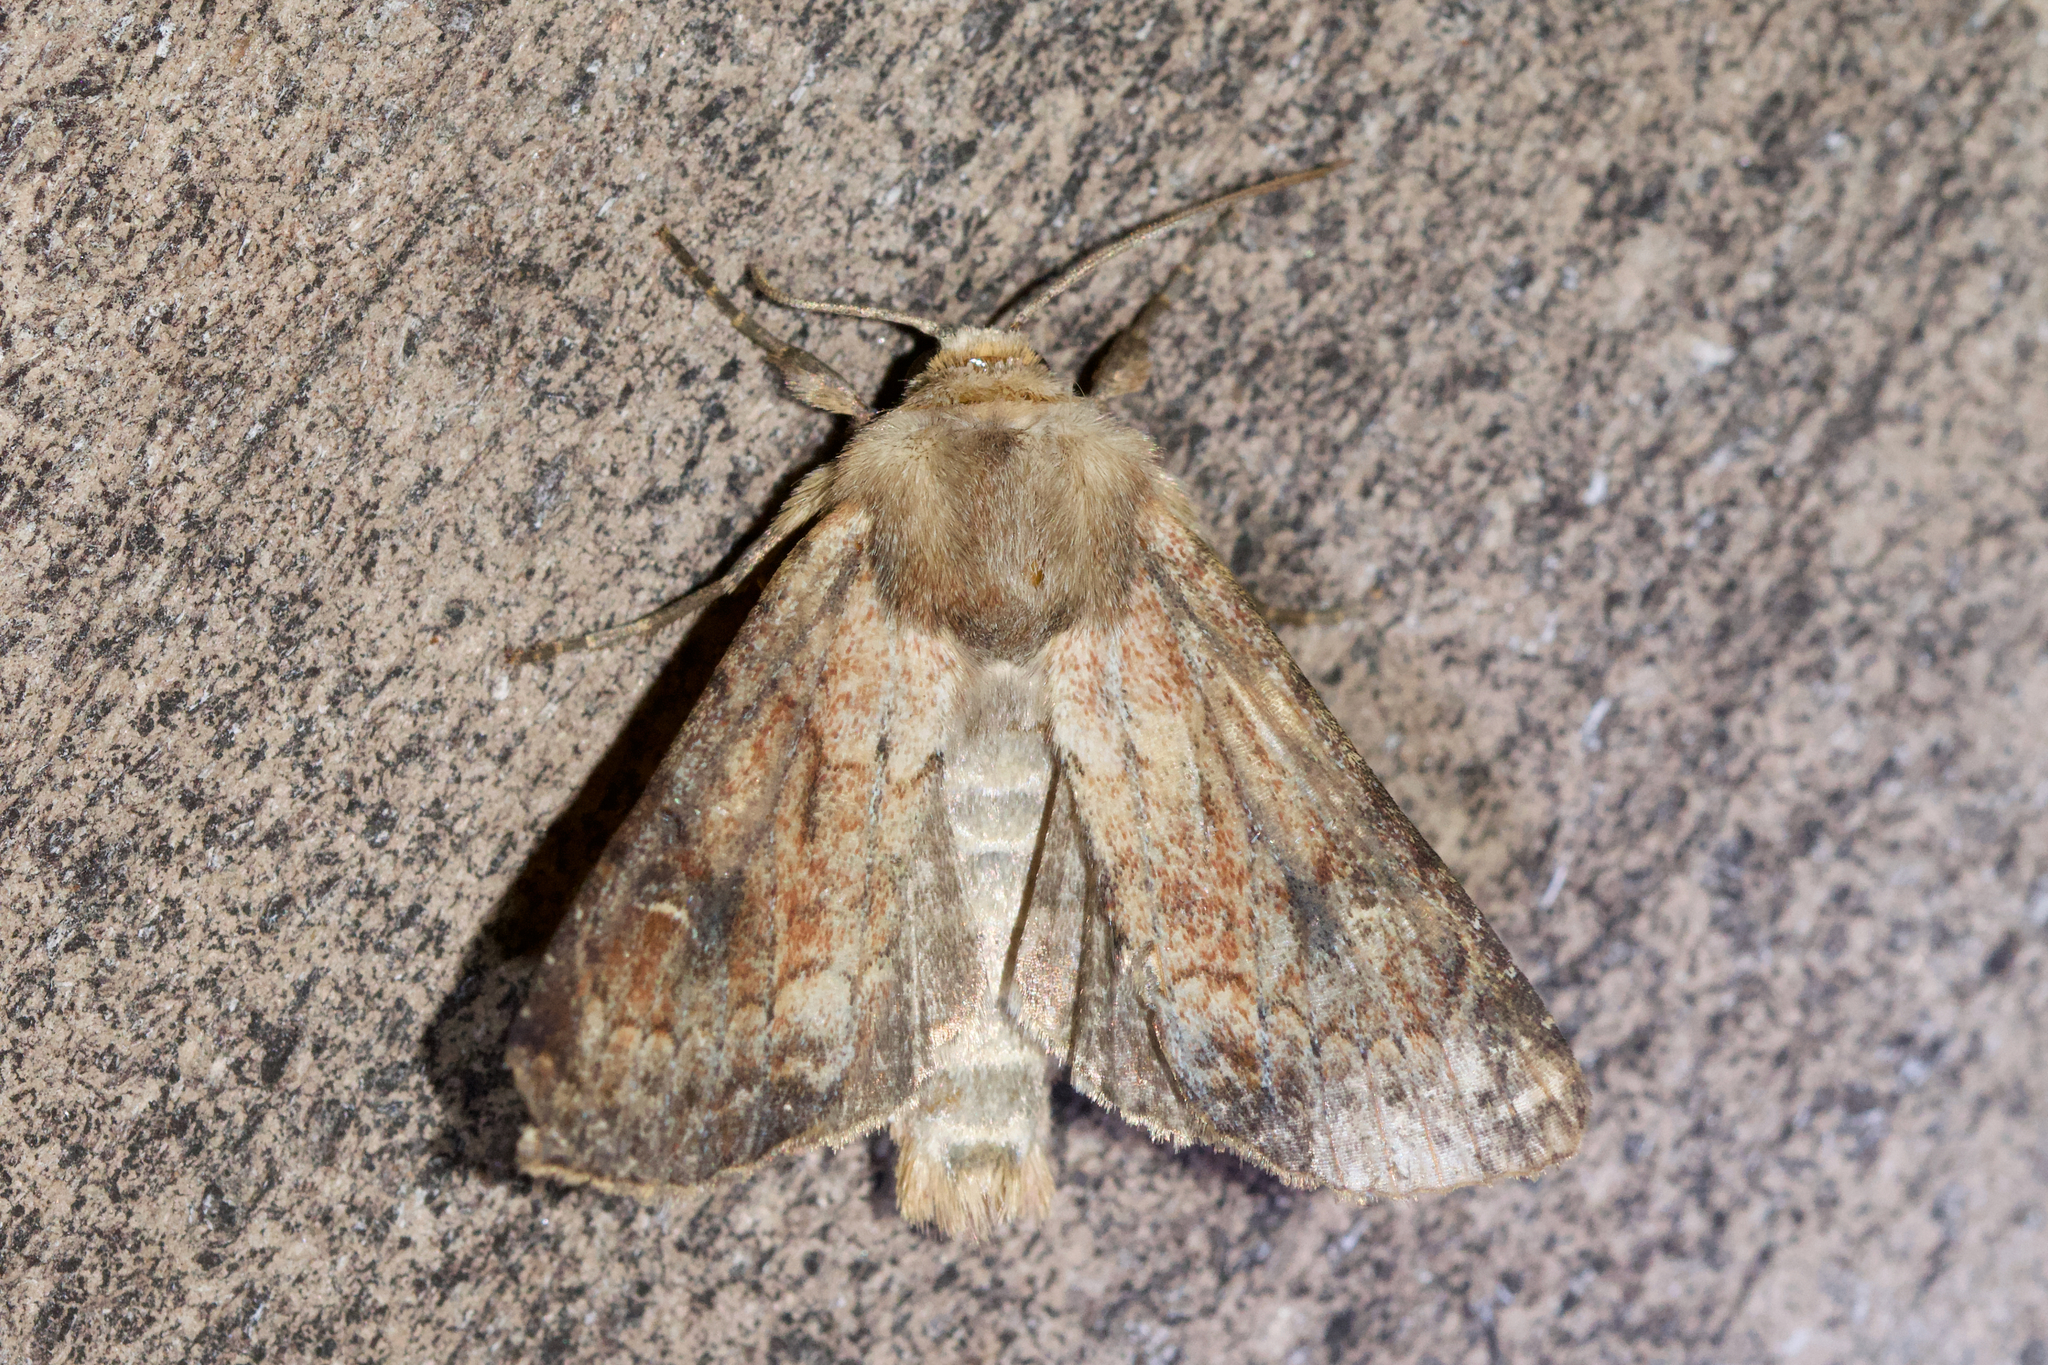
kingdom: Animalia
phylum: Arthropoda
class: Insecta
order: Lepidoptera
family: Noctuidae
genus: Lacinipolia
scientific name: Lacinipolia meditata
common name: Thinker moth
